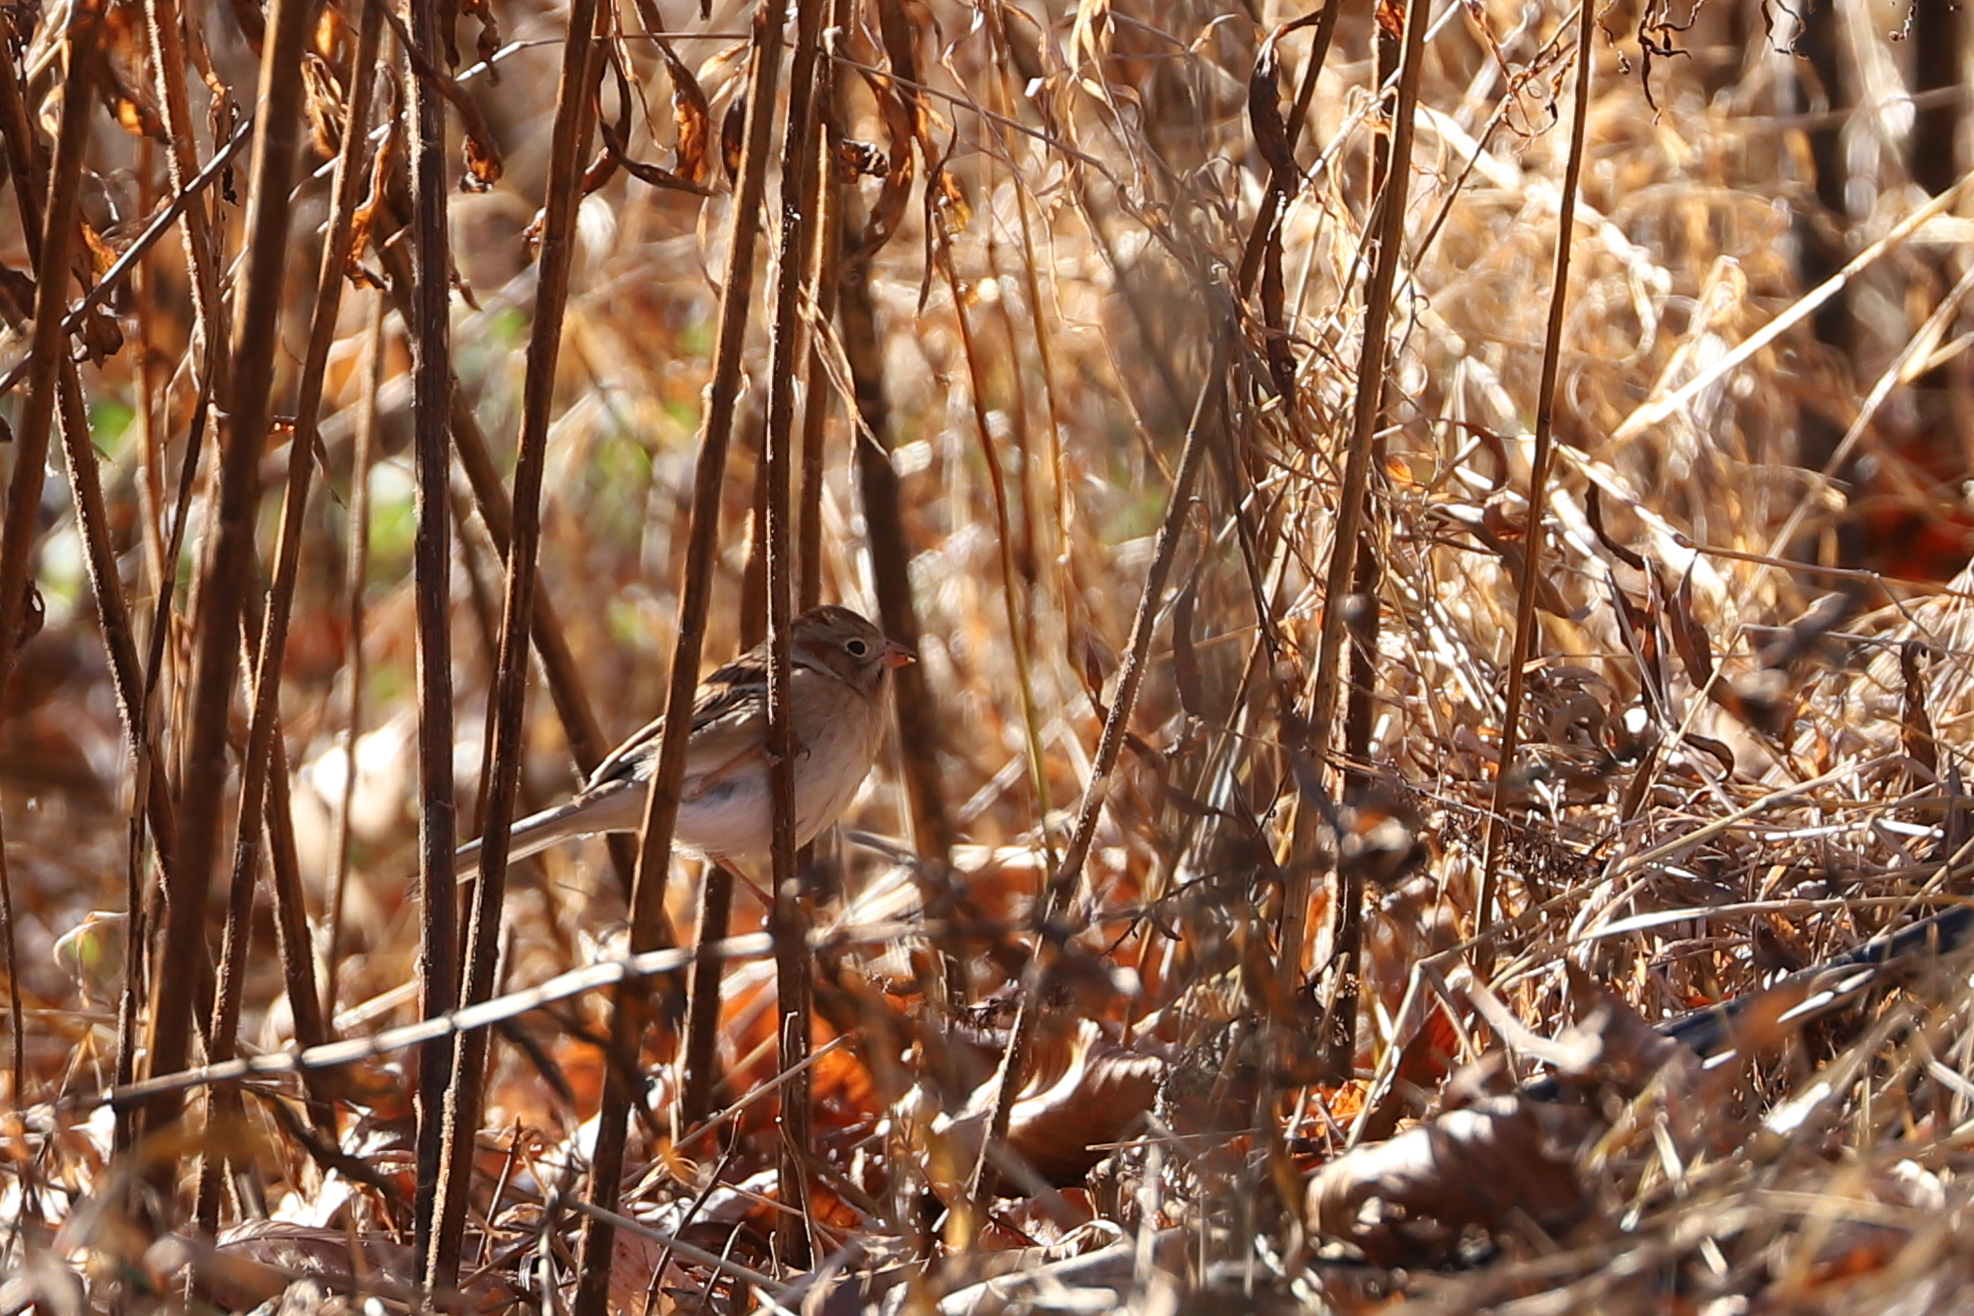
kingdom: Animalia
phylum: Chordata
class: Aves
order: Passeriformes
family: Passerellidae
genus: Spizella
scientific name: Spizella pusilla
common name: Field sparrow
